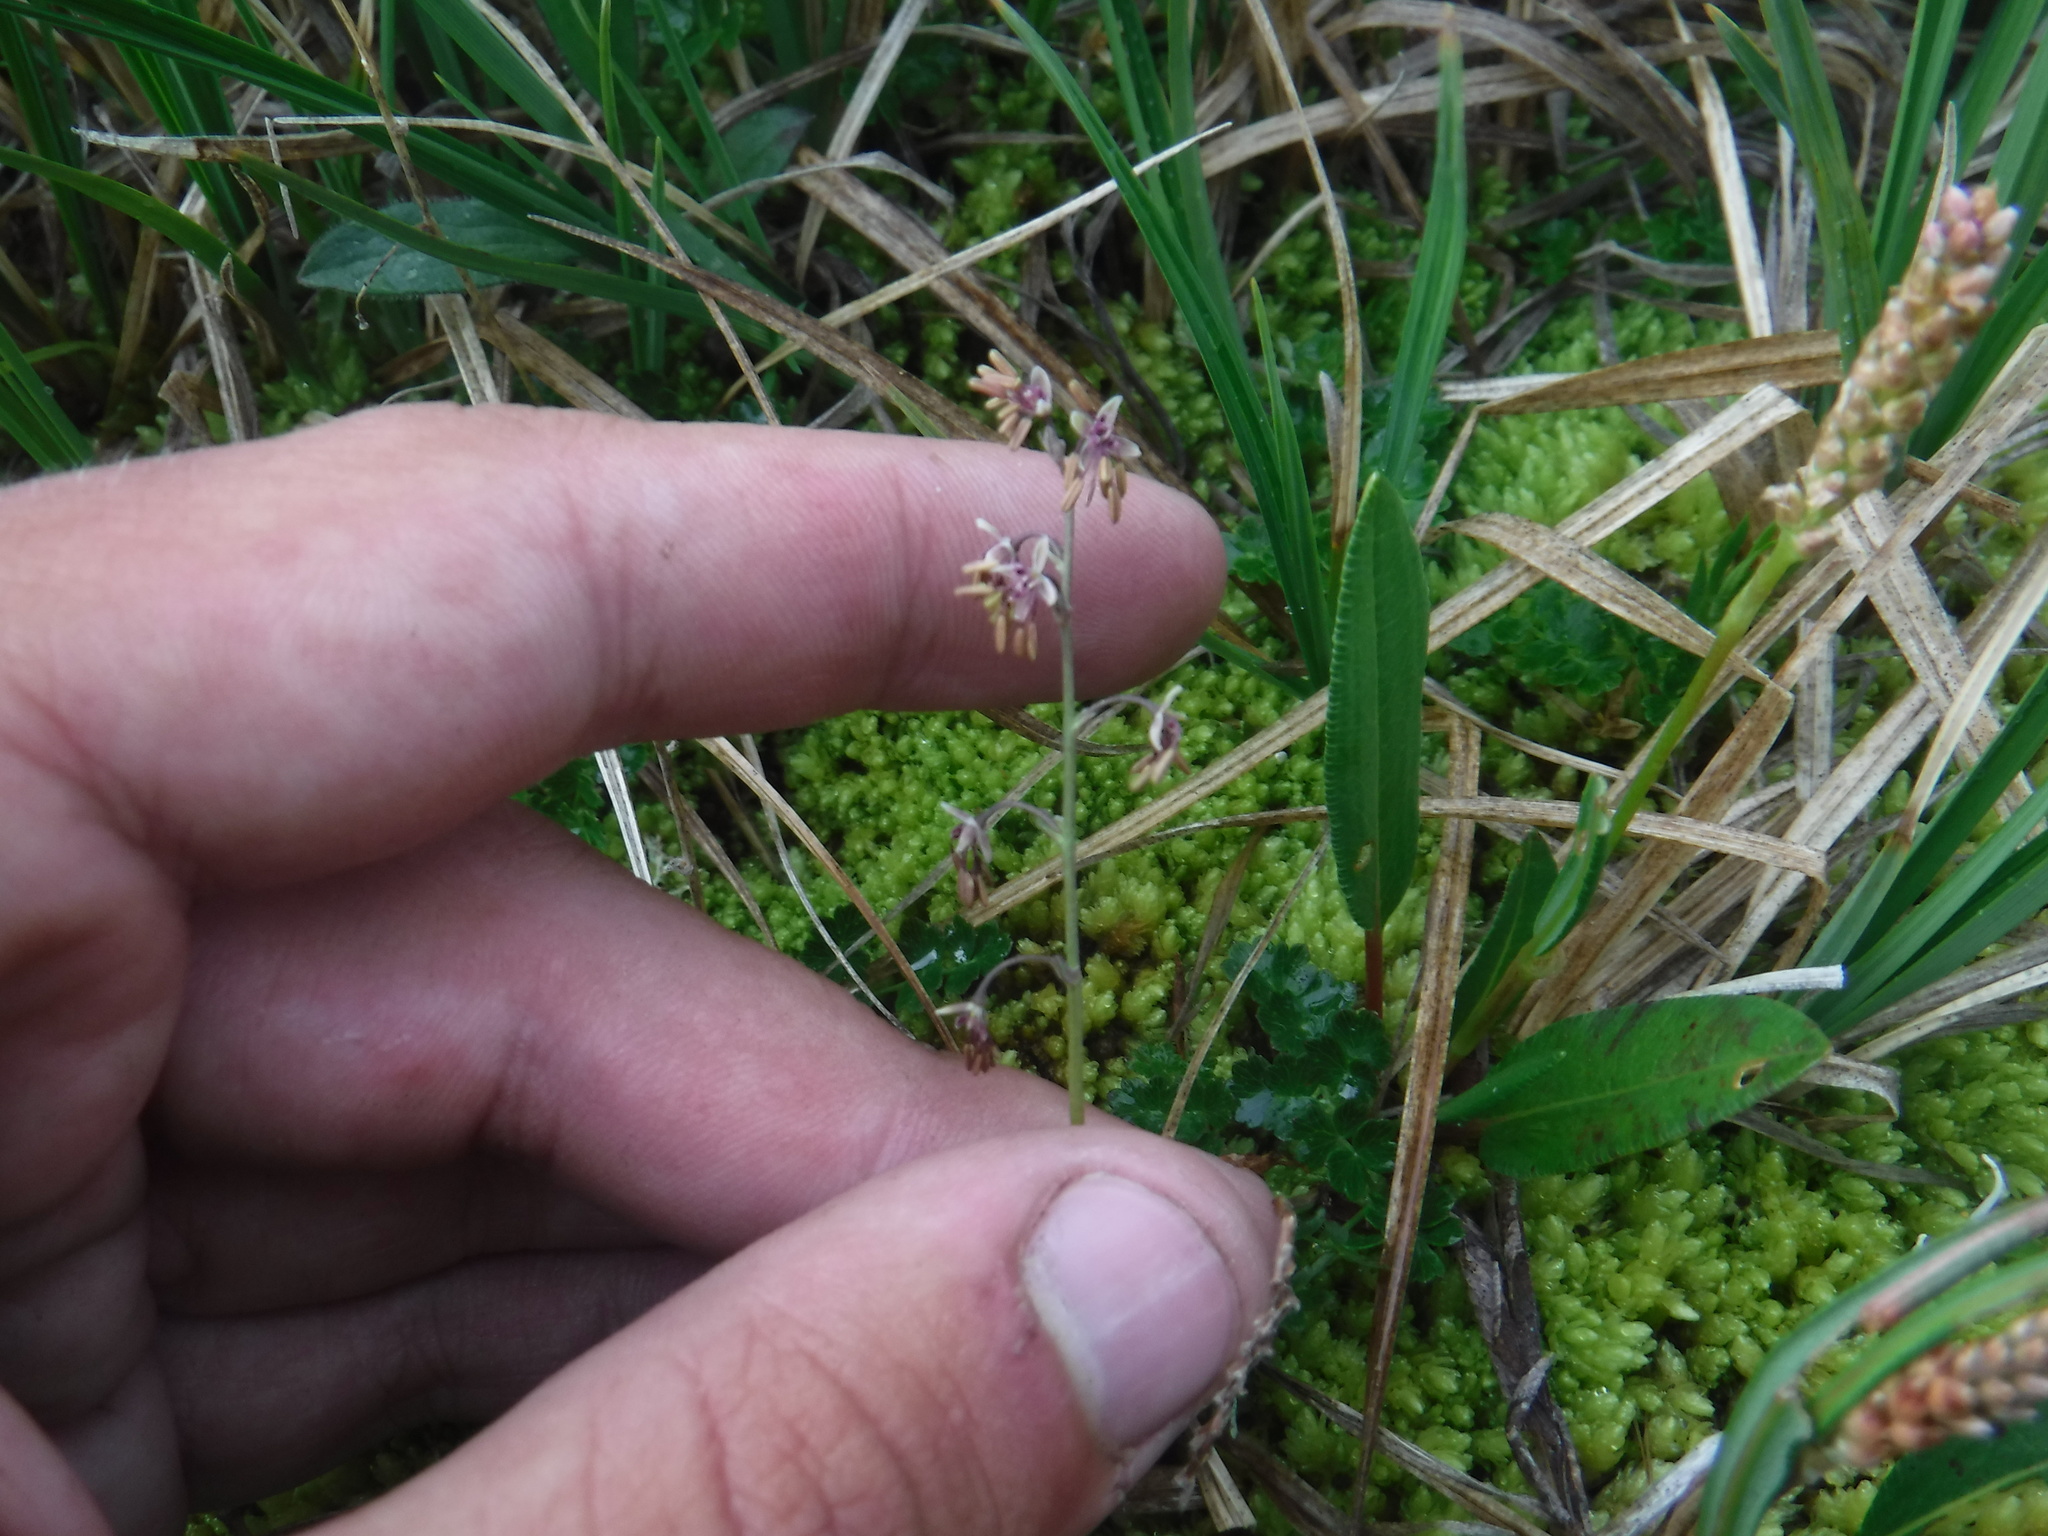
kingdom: Plantae
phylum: Tracheophyta
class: Magnoliopsida
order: Ranunculales
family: Ranunculaceae
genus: Thalictrum
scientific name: Thalictrum alpinum
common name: Alpine meadow-rue
